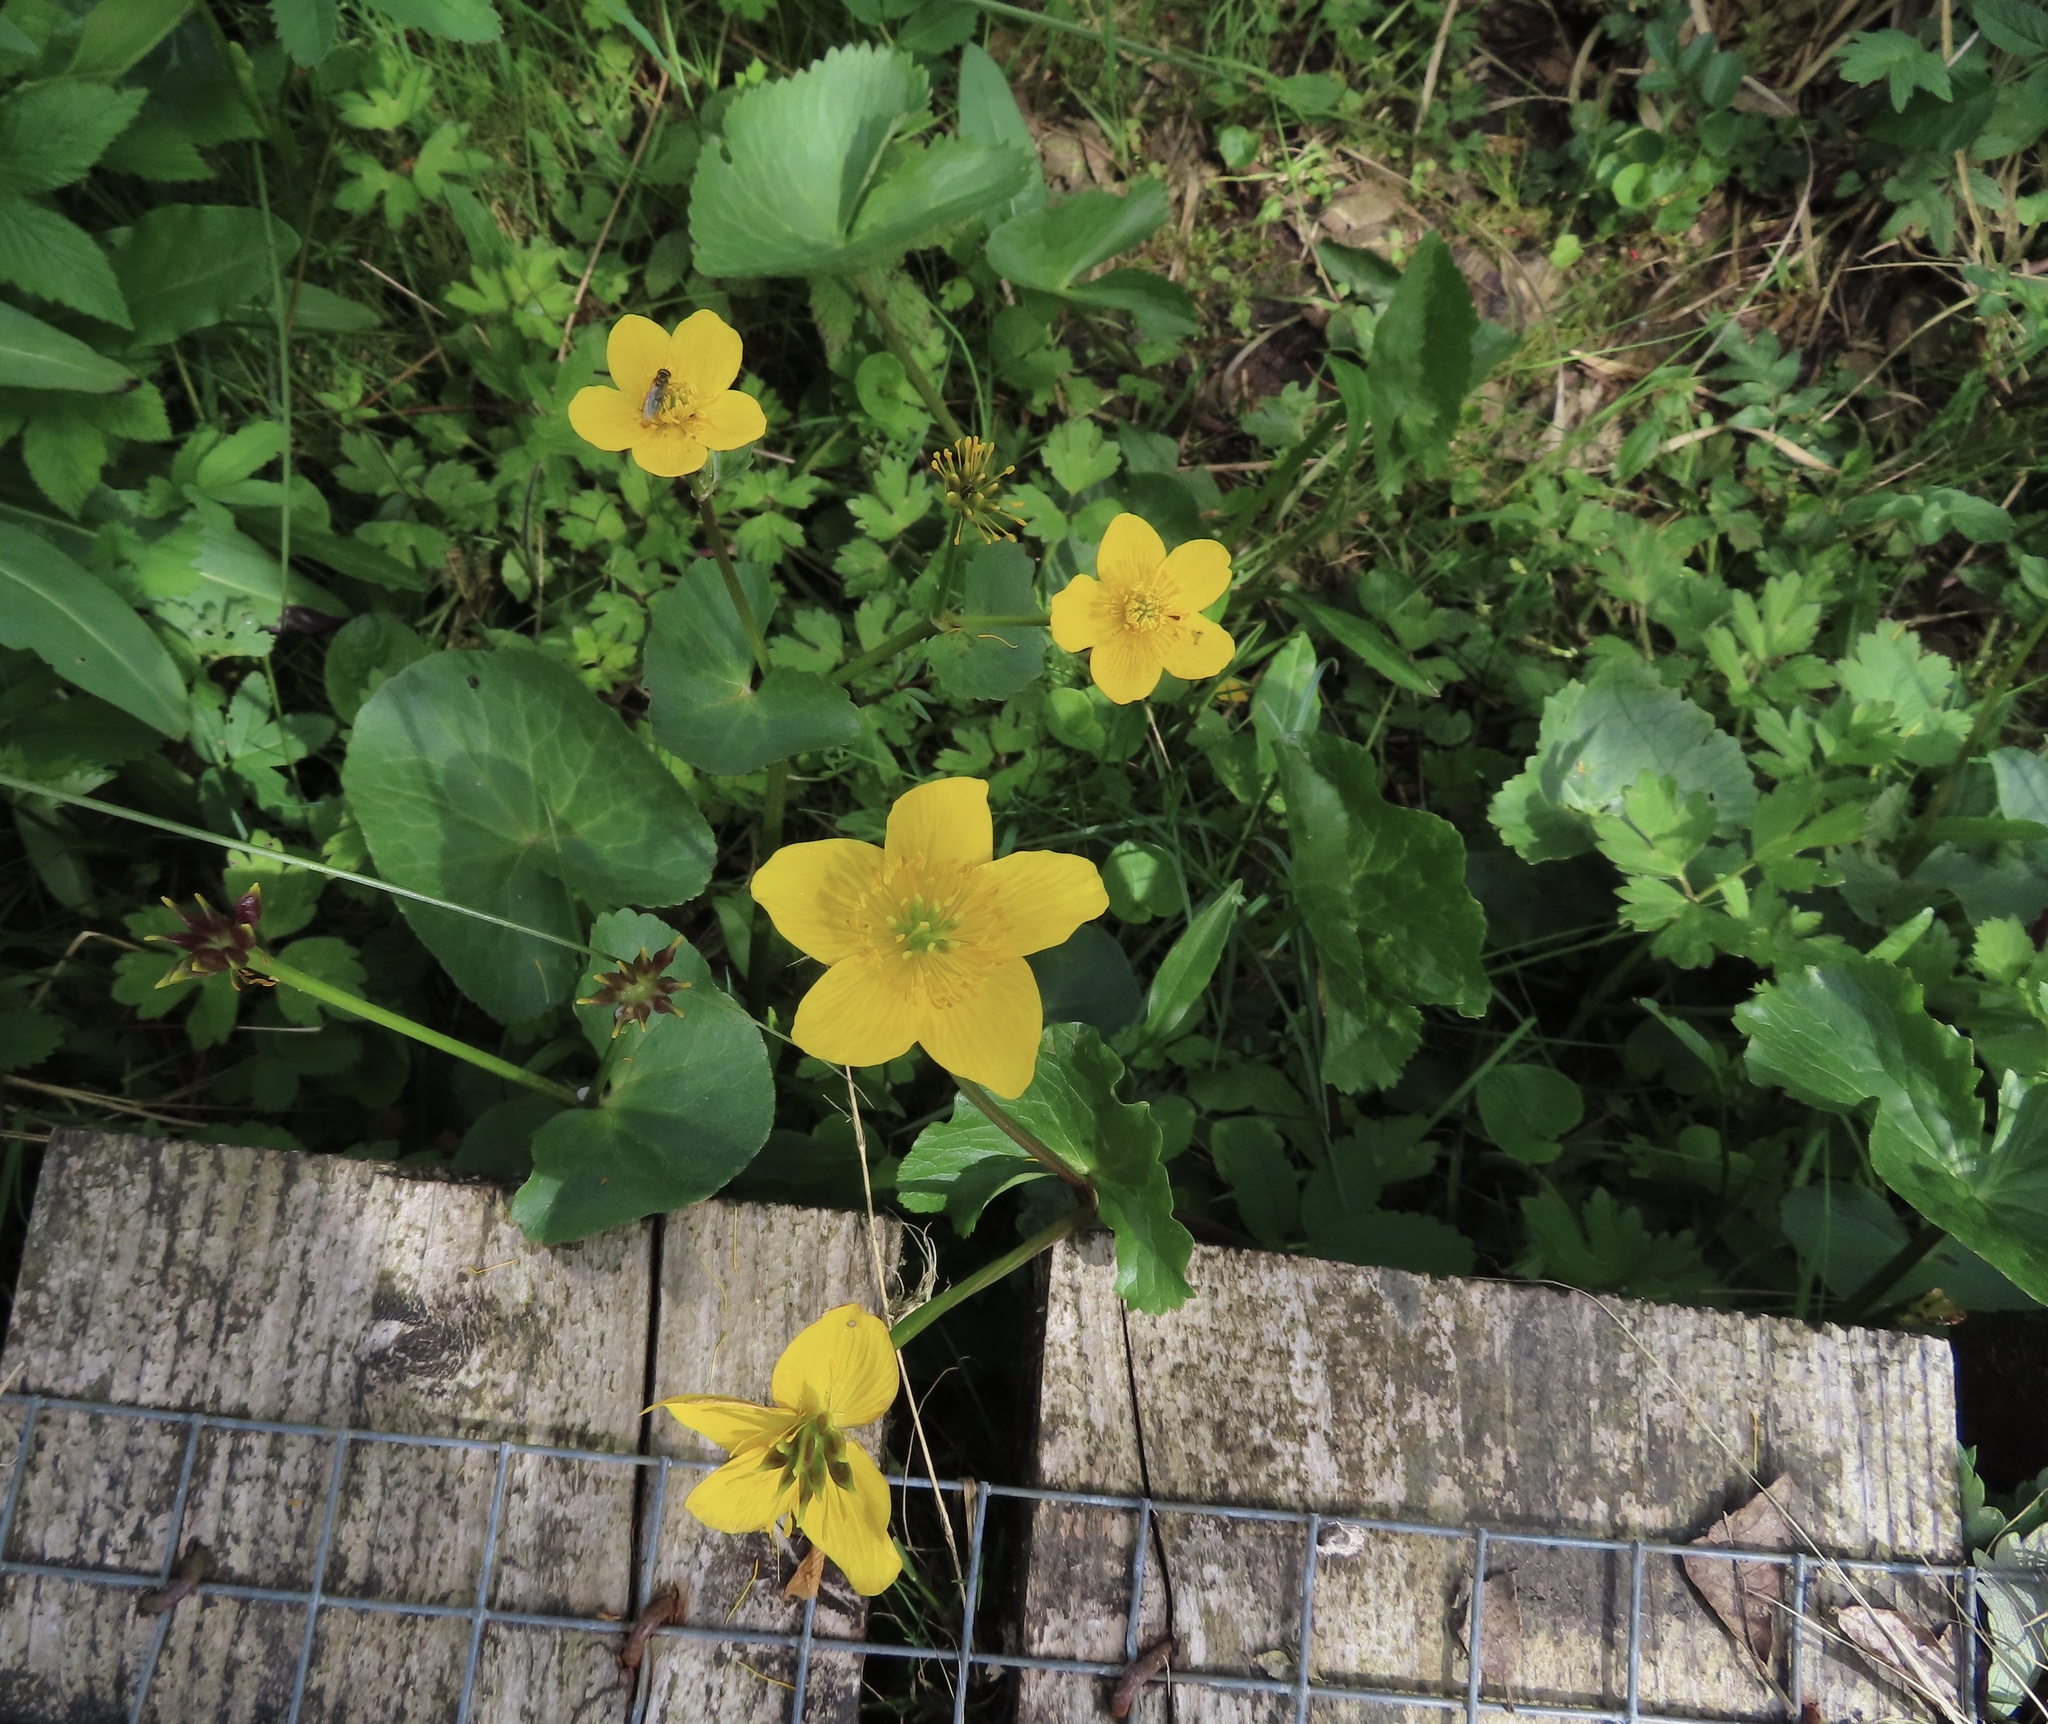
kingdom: Plantae
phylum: Tracheophyta
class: Magnoliopsida
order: Ranunculales
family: Ranunculaceae
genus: Caltha
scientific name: Caltha palustris
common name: Marsh marigold
